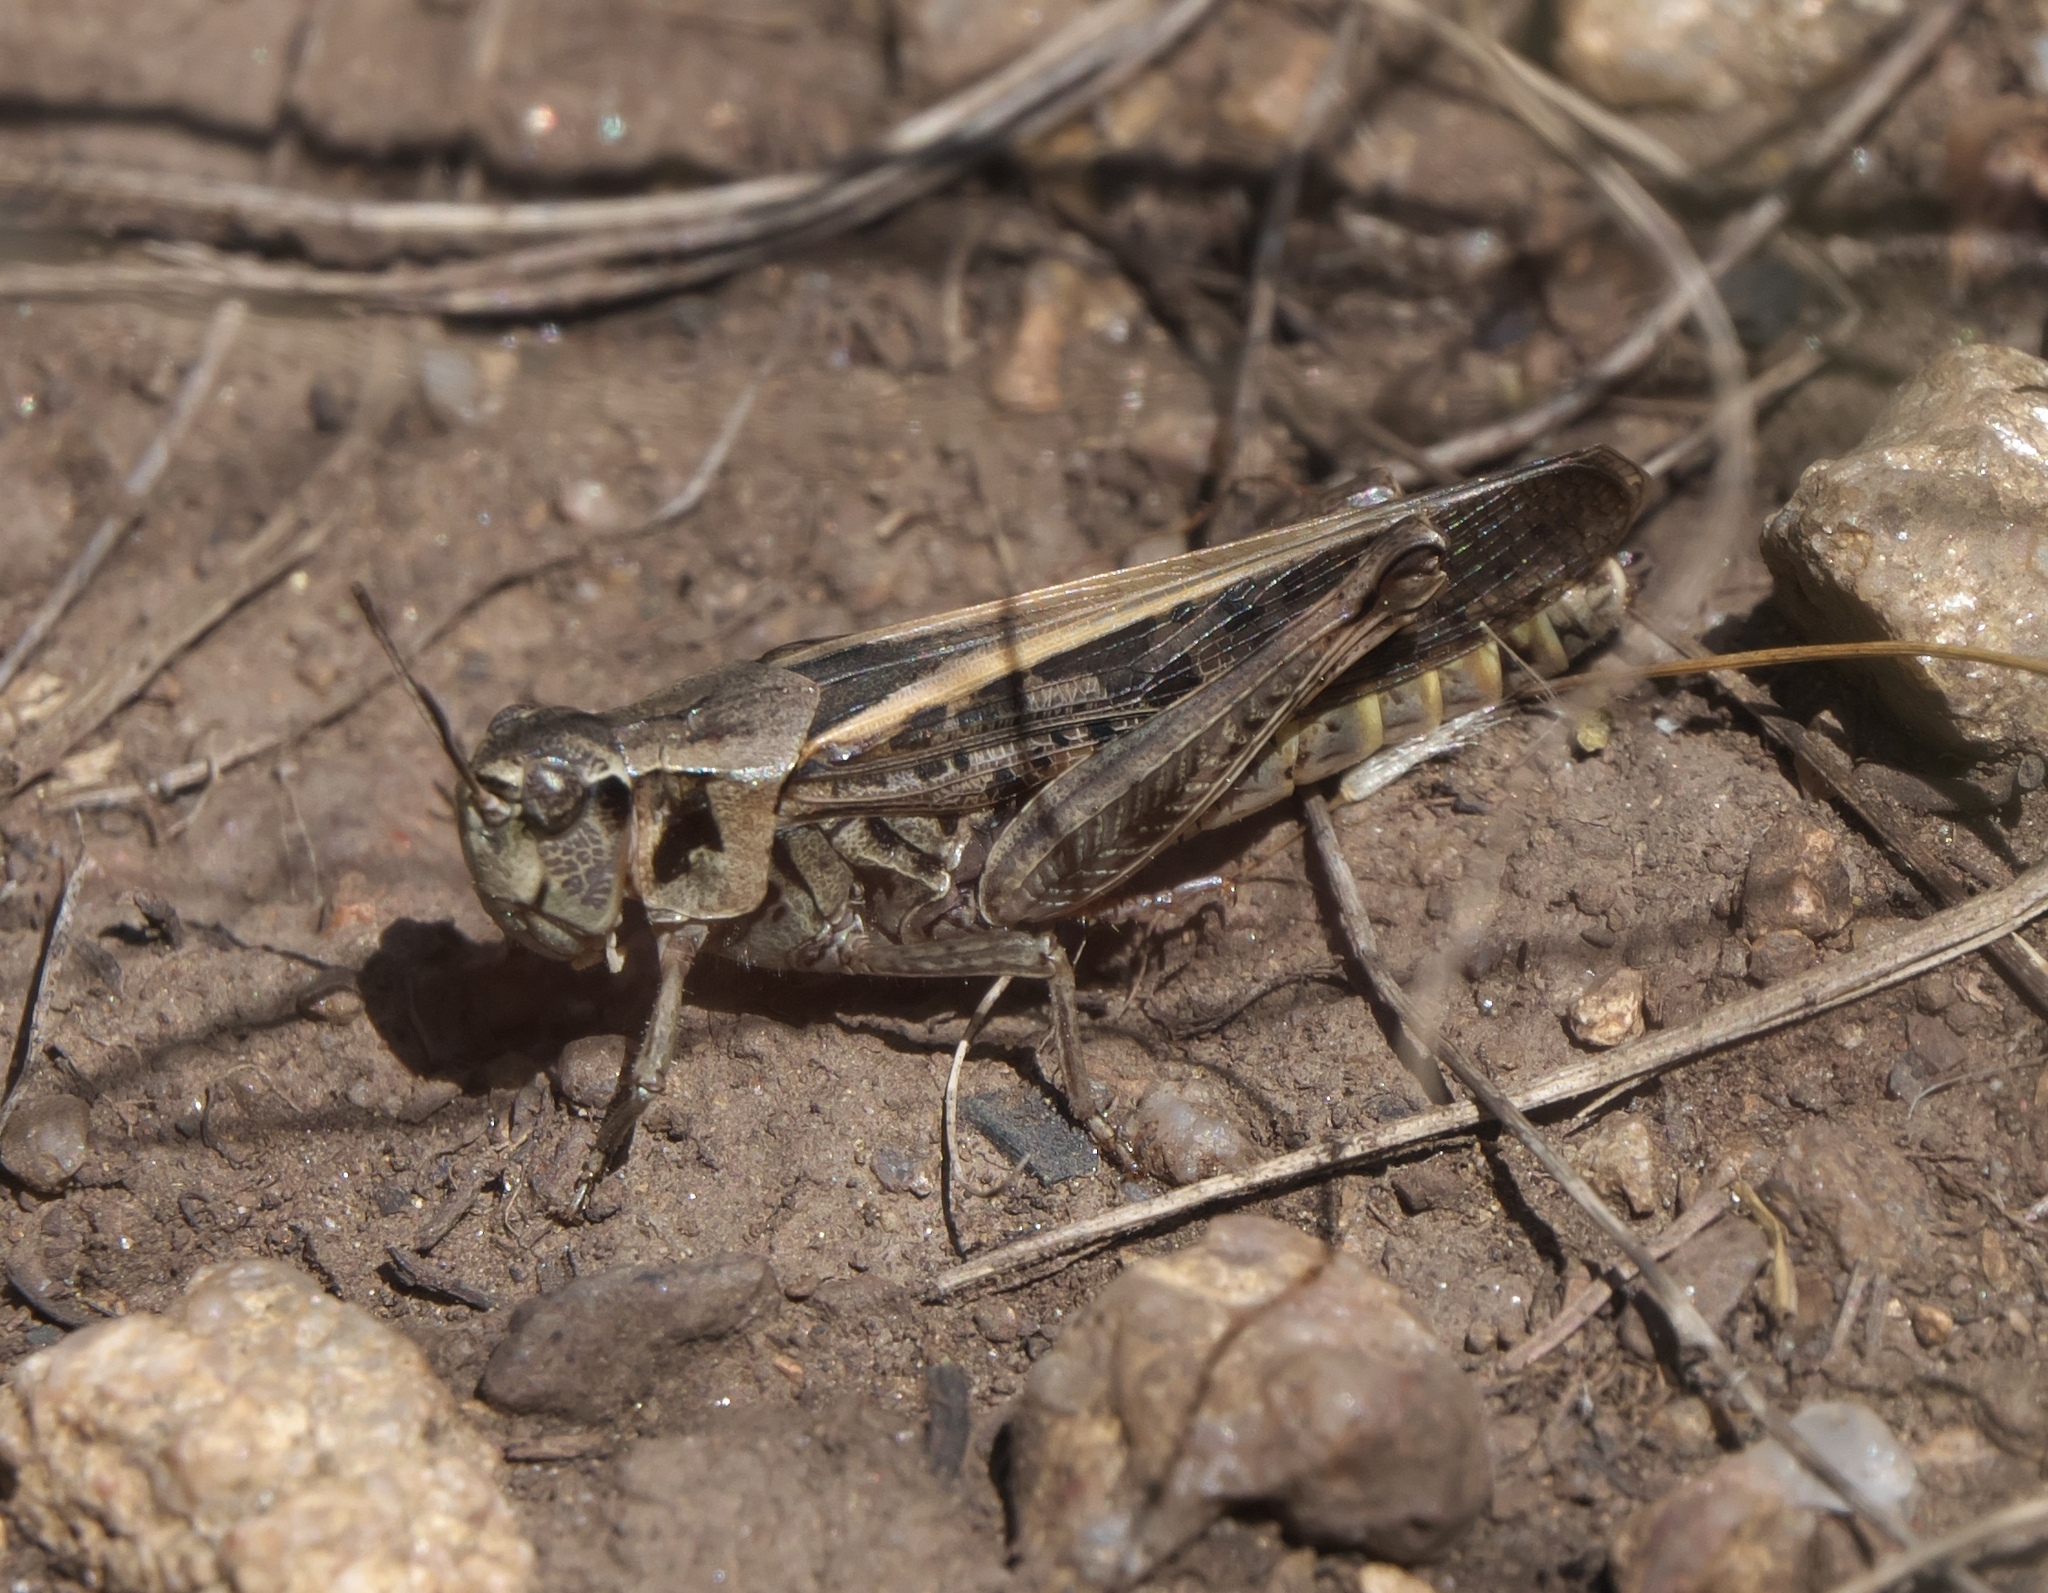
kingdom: Animalia
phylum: Arthropoda
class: Insecta
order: Orthoptera
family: Acrididae
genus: Camnula
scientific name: Camnula pellucida
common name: Clear-winged grasshopper
